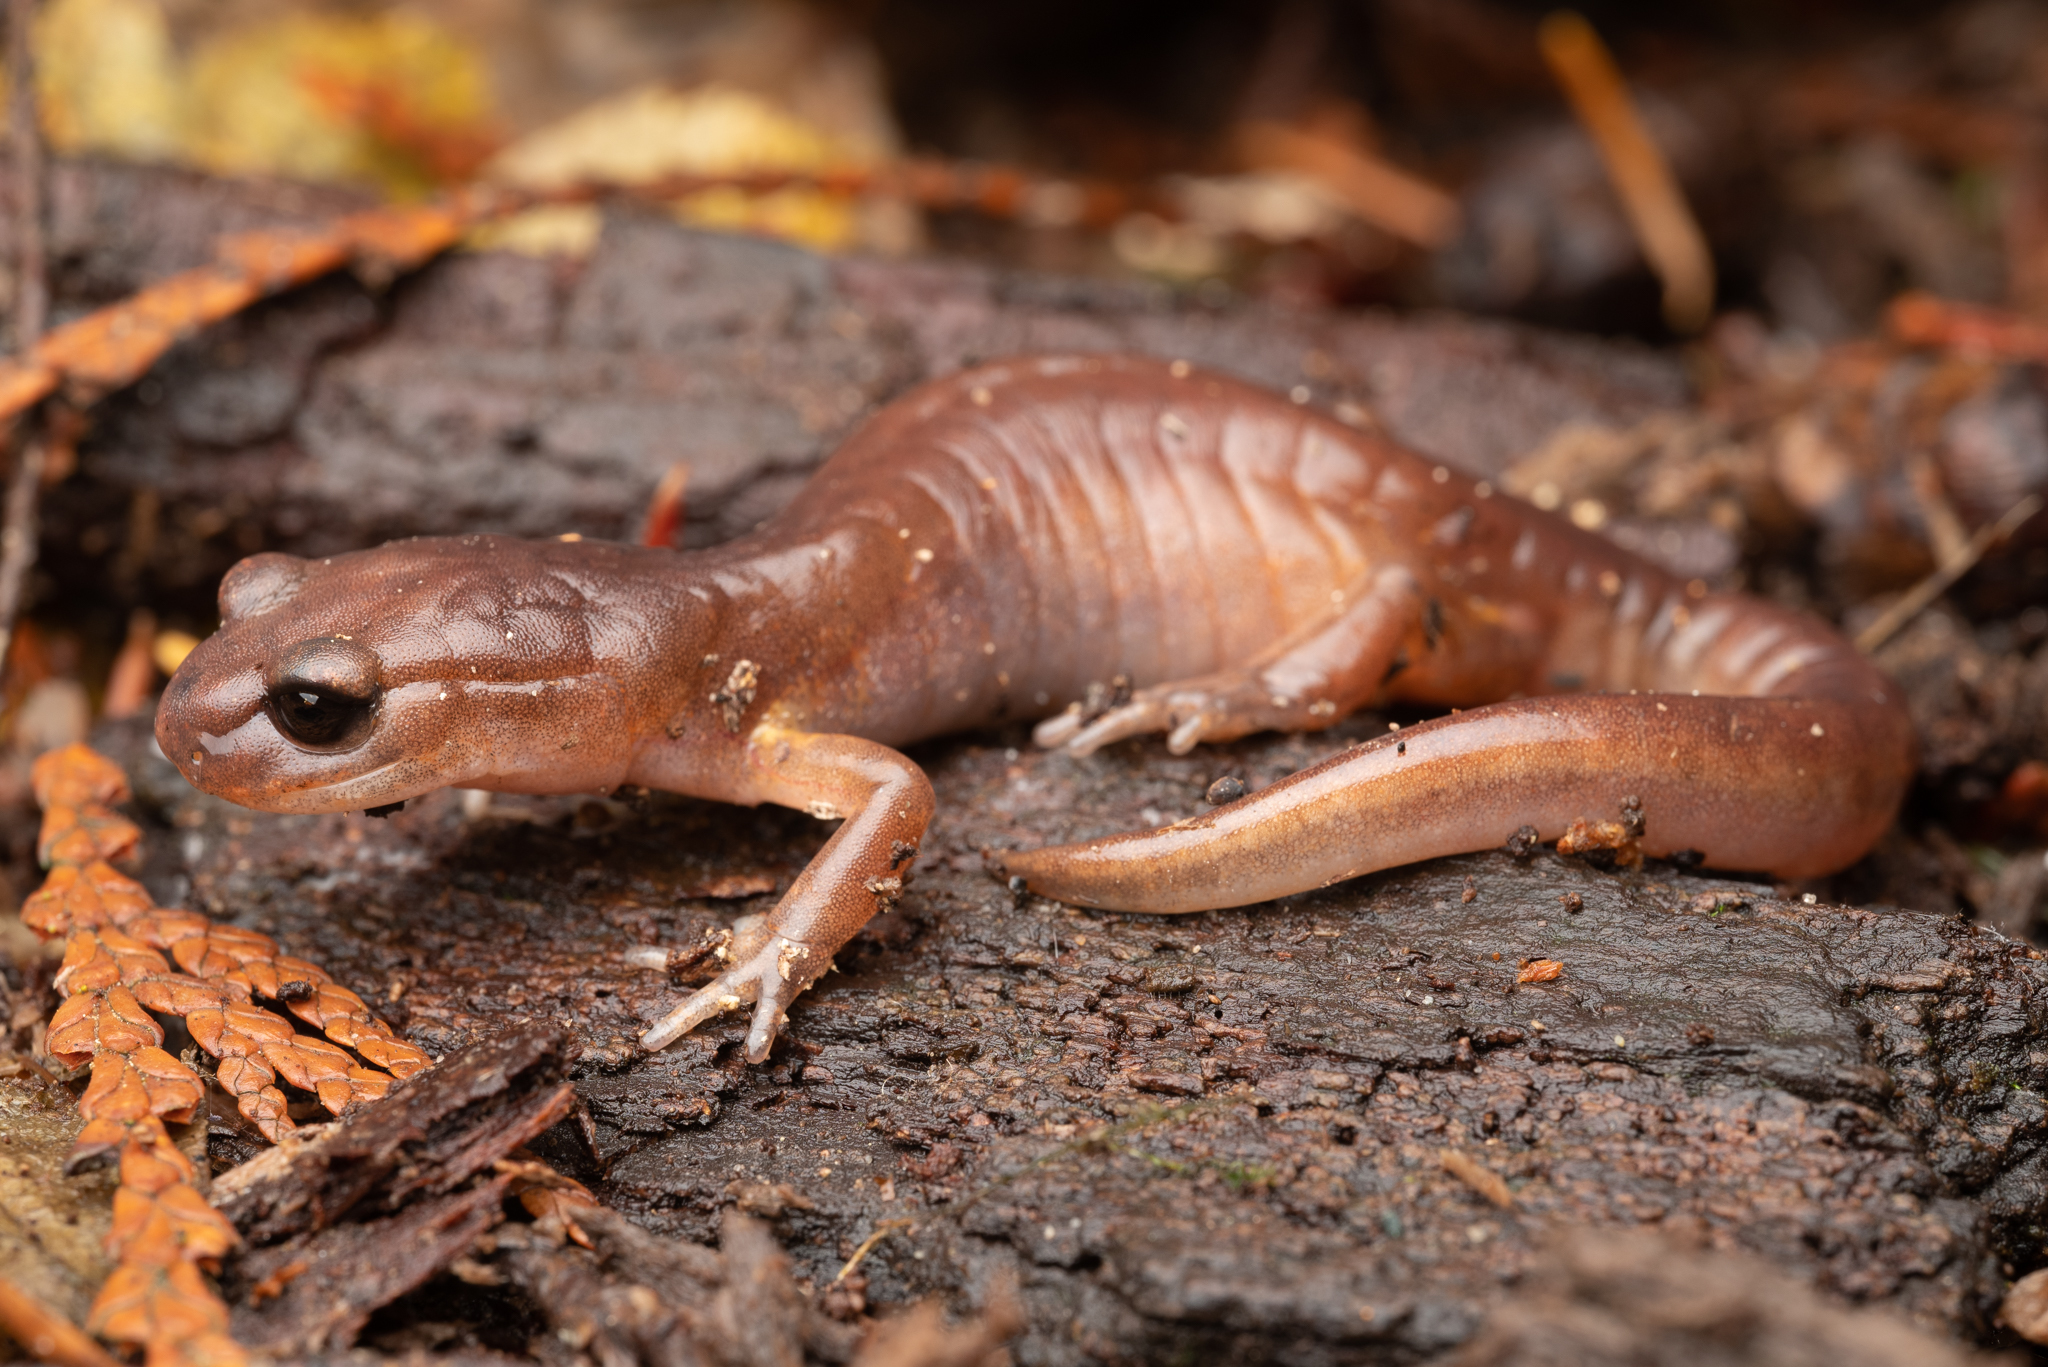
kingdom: Animalia
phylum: Chordata
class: Amphibia
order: Caudata
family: Plethodontidae
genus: Ensatina
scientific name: Ensatina eschscholtzii
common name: Ensatina
